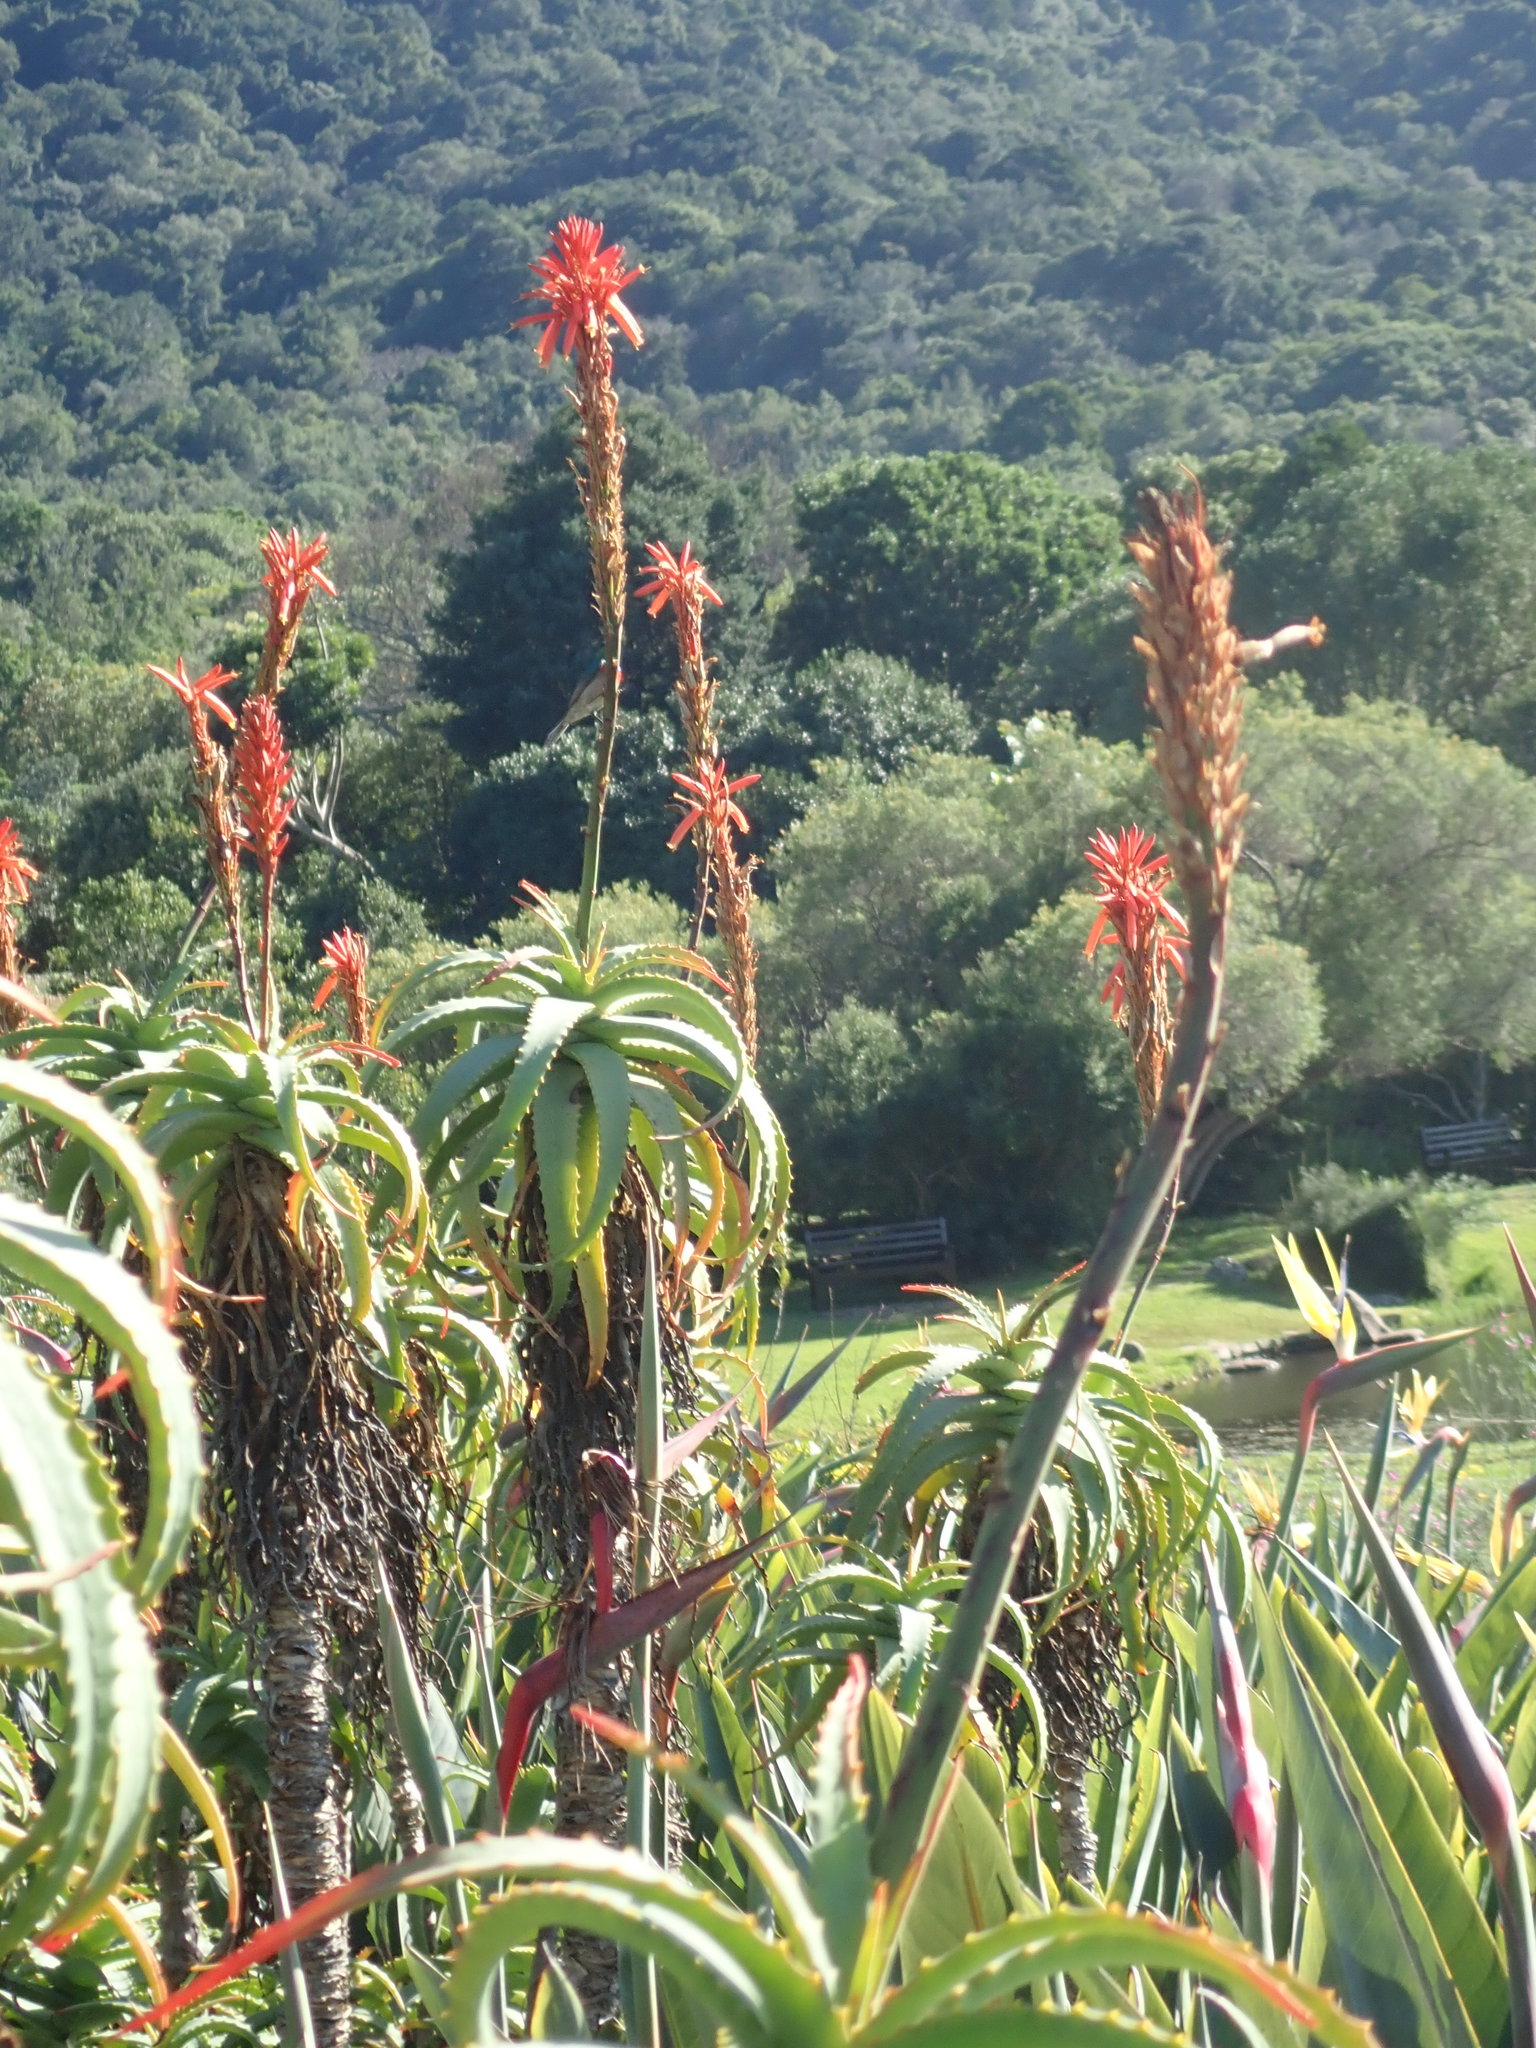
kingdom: Plantae
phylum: Tracheophyta
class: Liliopsida
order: Asparagales
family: Asphodelaceae
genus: Aloe
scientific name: Aloe arborescens
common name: Candelabra aloe
